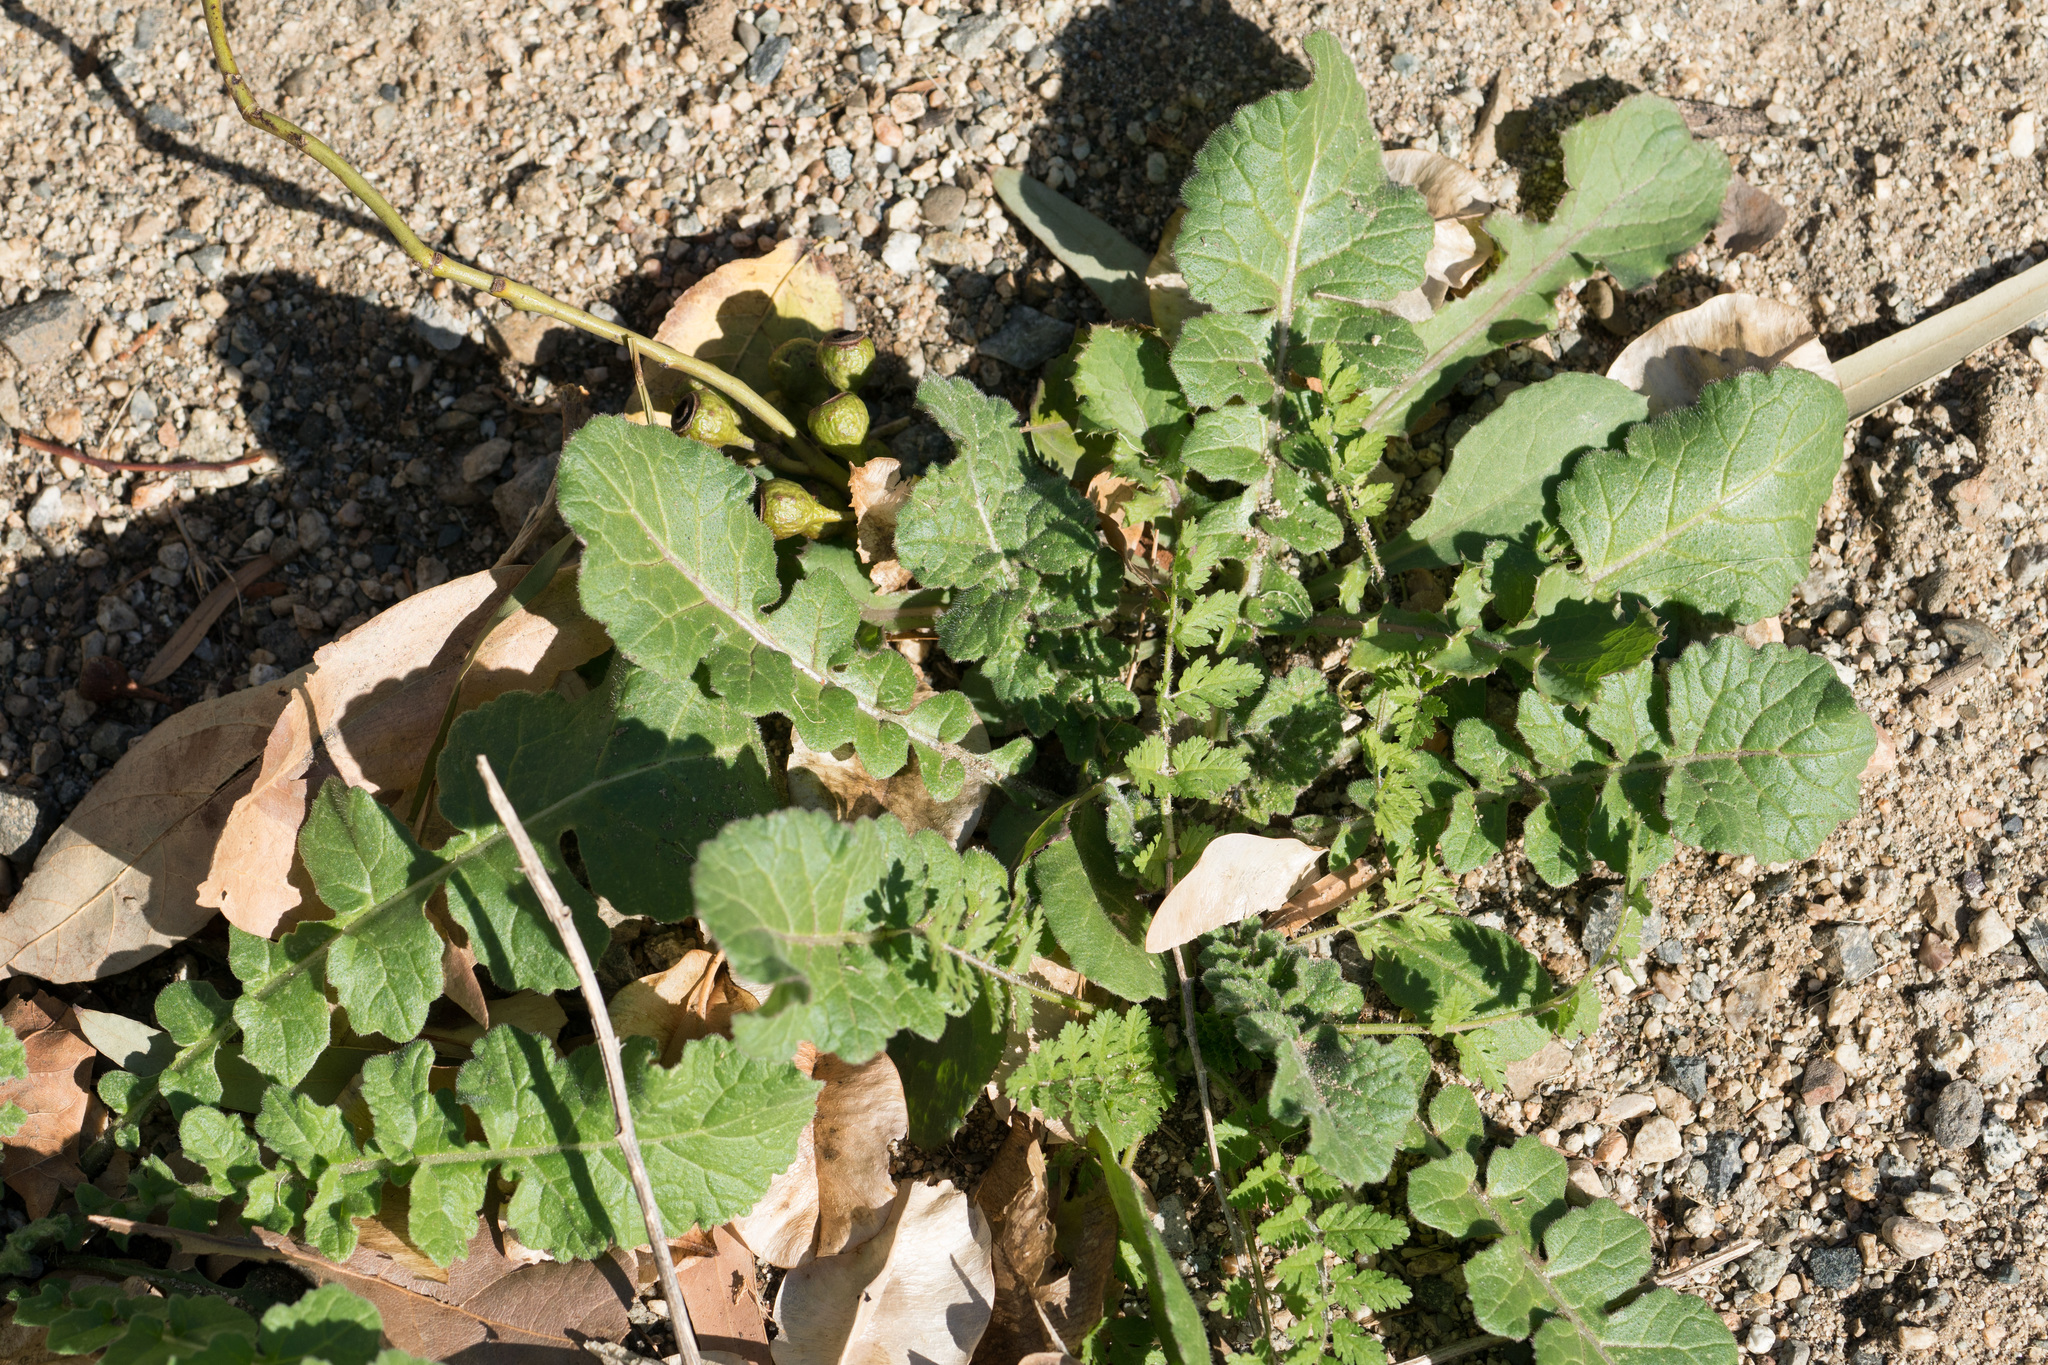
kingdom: Plantae
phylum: Tracheophyta
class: Magnoliopsida
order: Brassicales
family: Brassicaceae
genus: Hirschfeldia
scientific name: Hirschfeldia incana
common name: Hoary mustard
